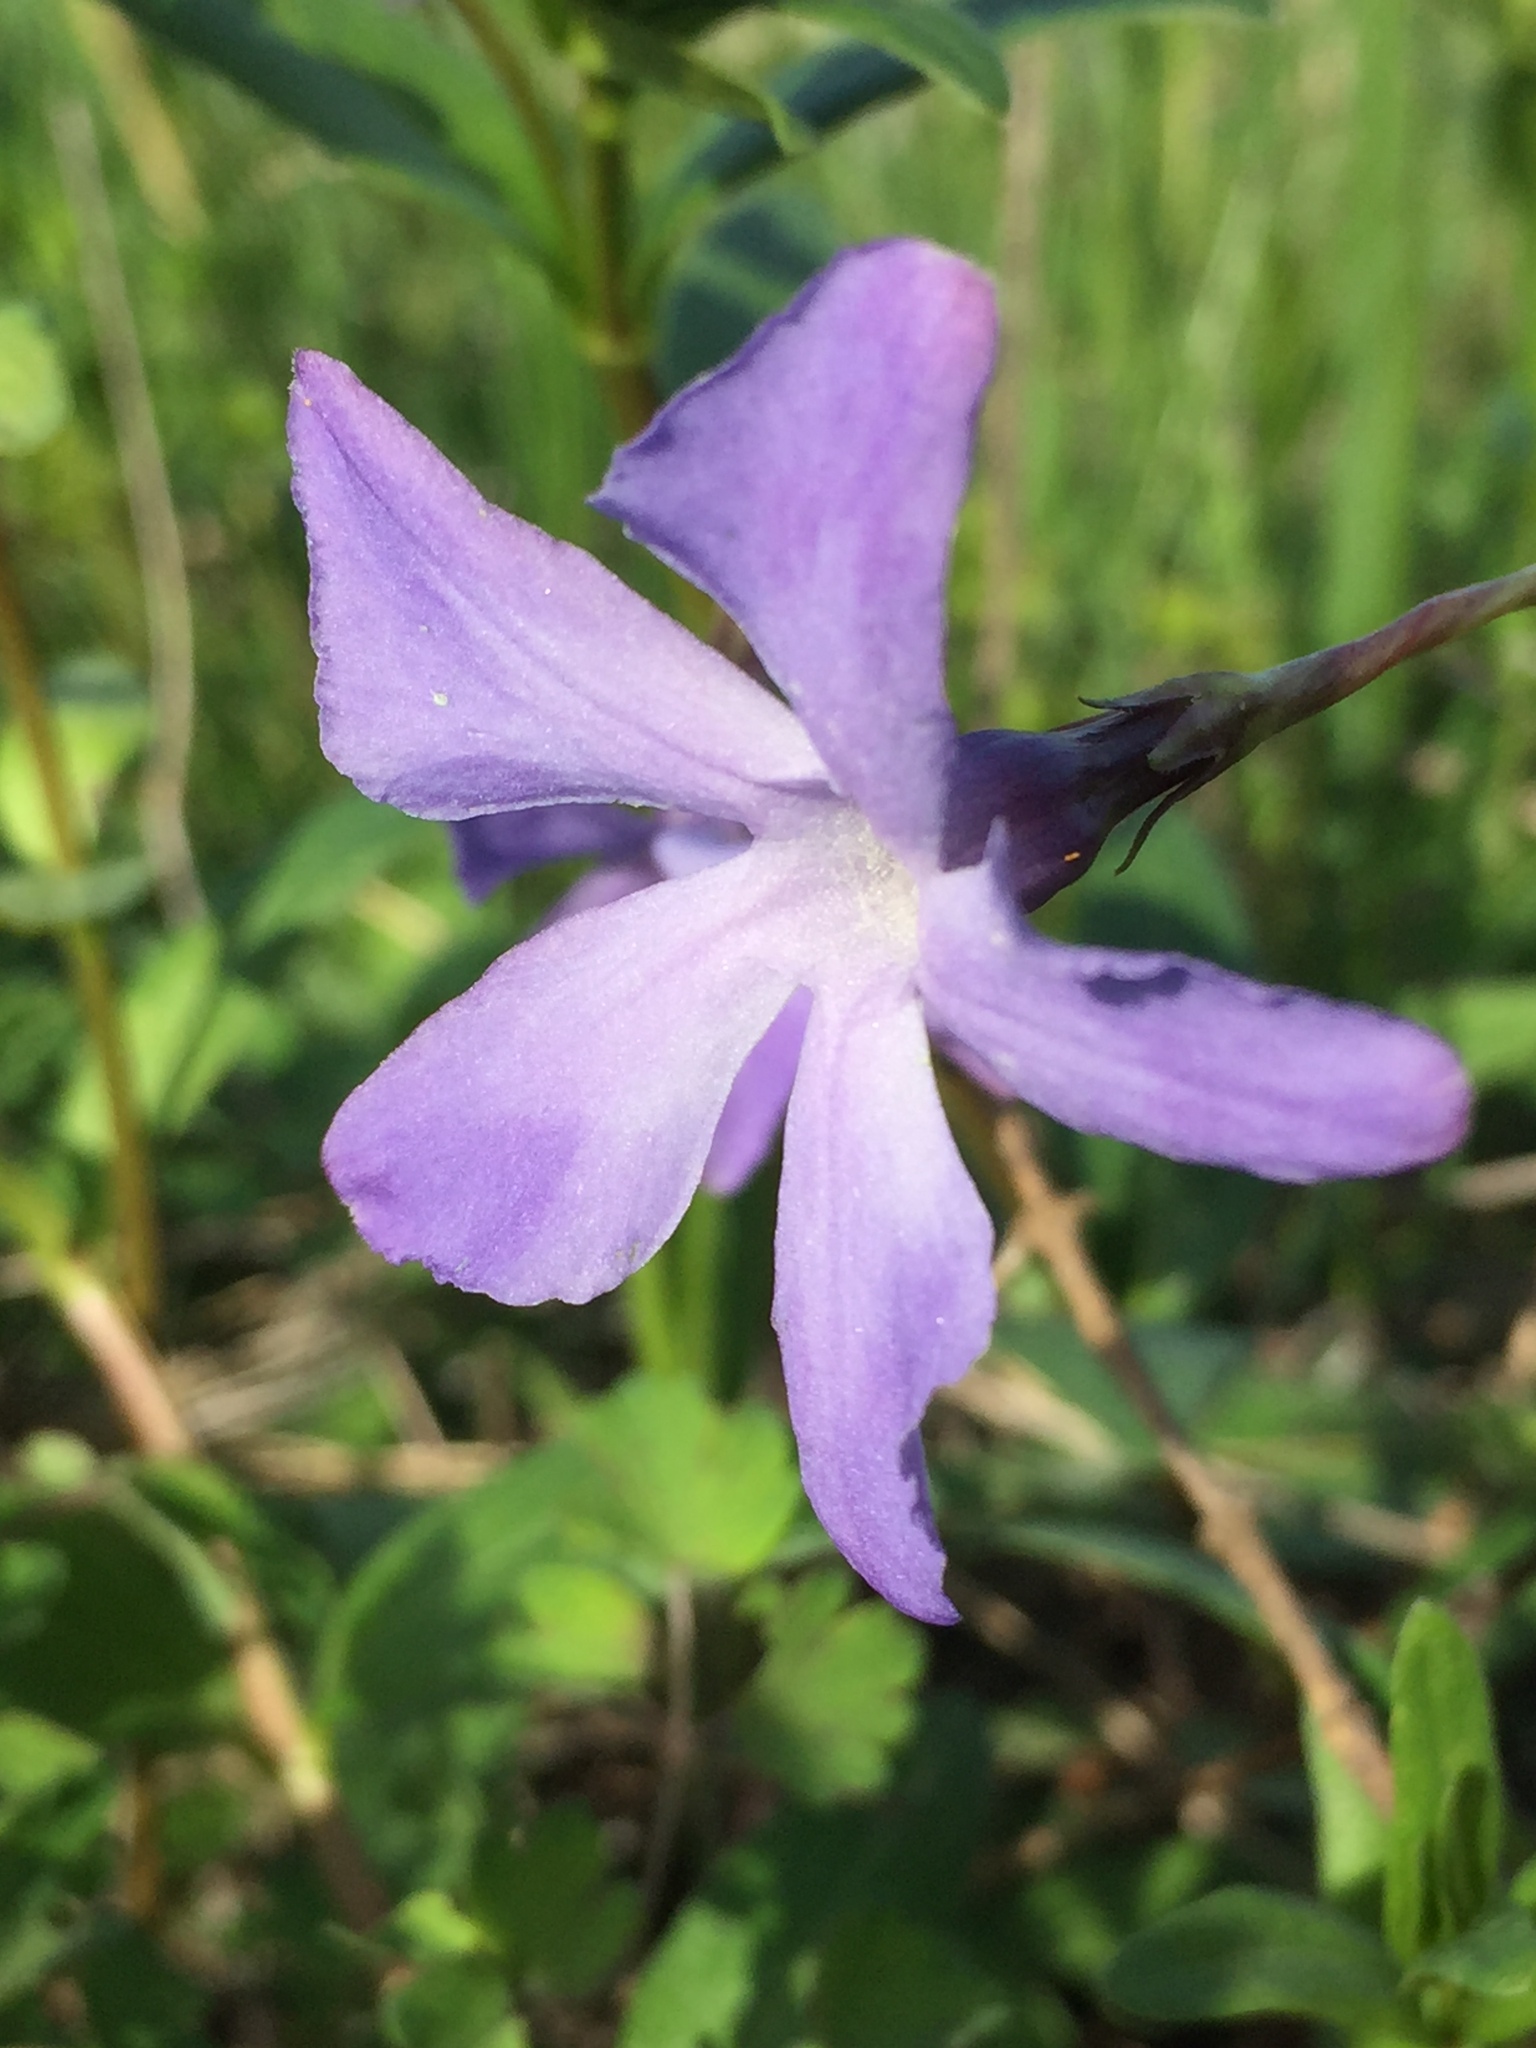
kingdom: Plantae
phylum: Tracheophyta
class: Magnoliopsida
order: Gentianales
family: Apocynaceae
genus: Vinca
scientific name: Vinca herbacea
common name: Herbaceous periwinkle
